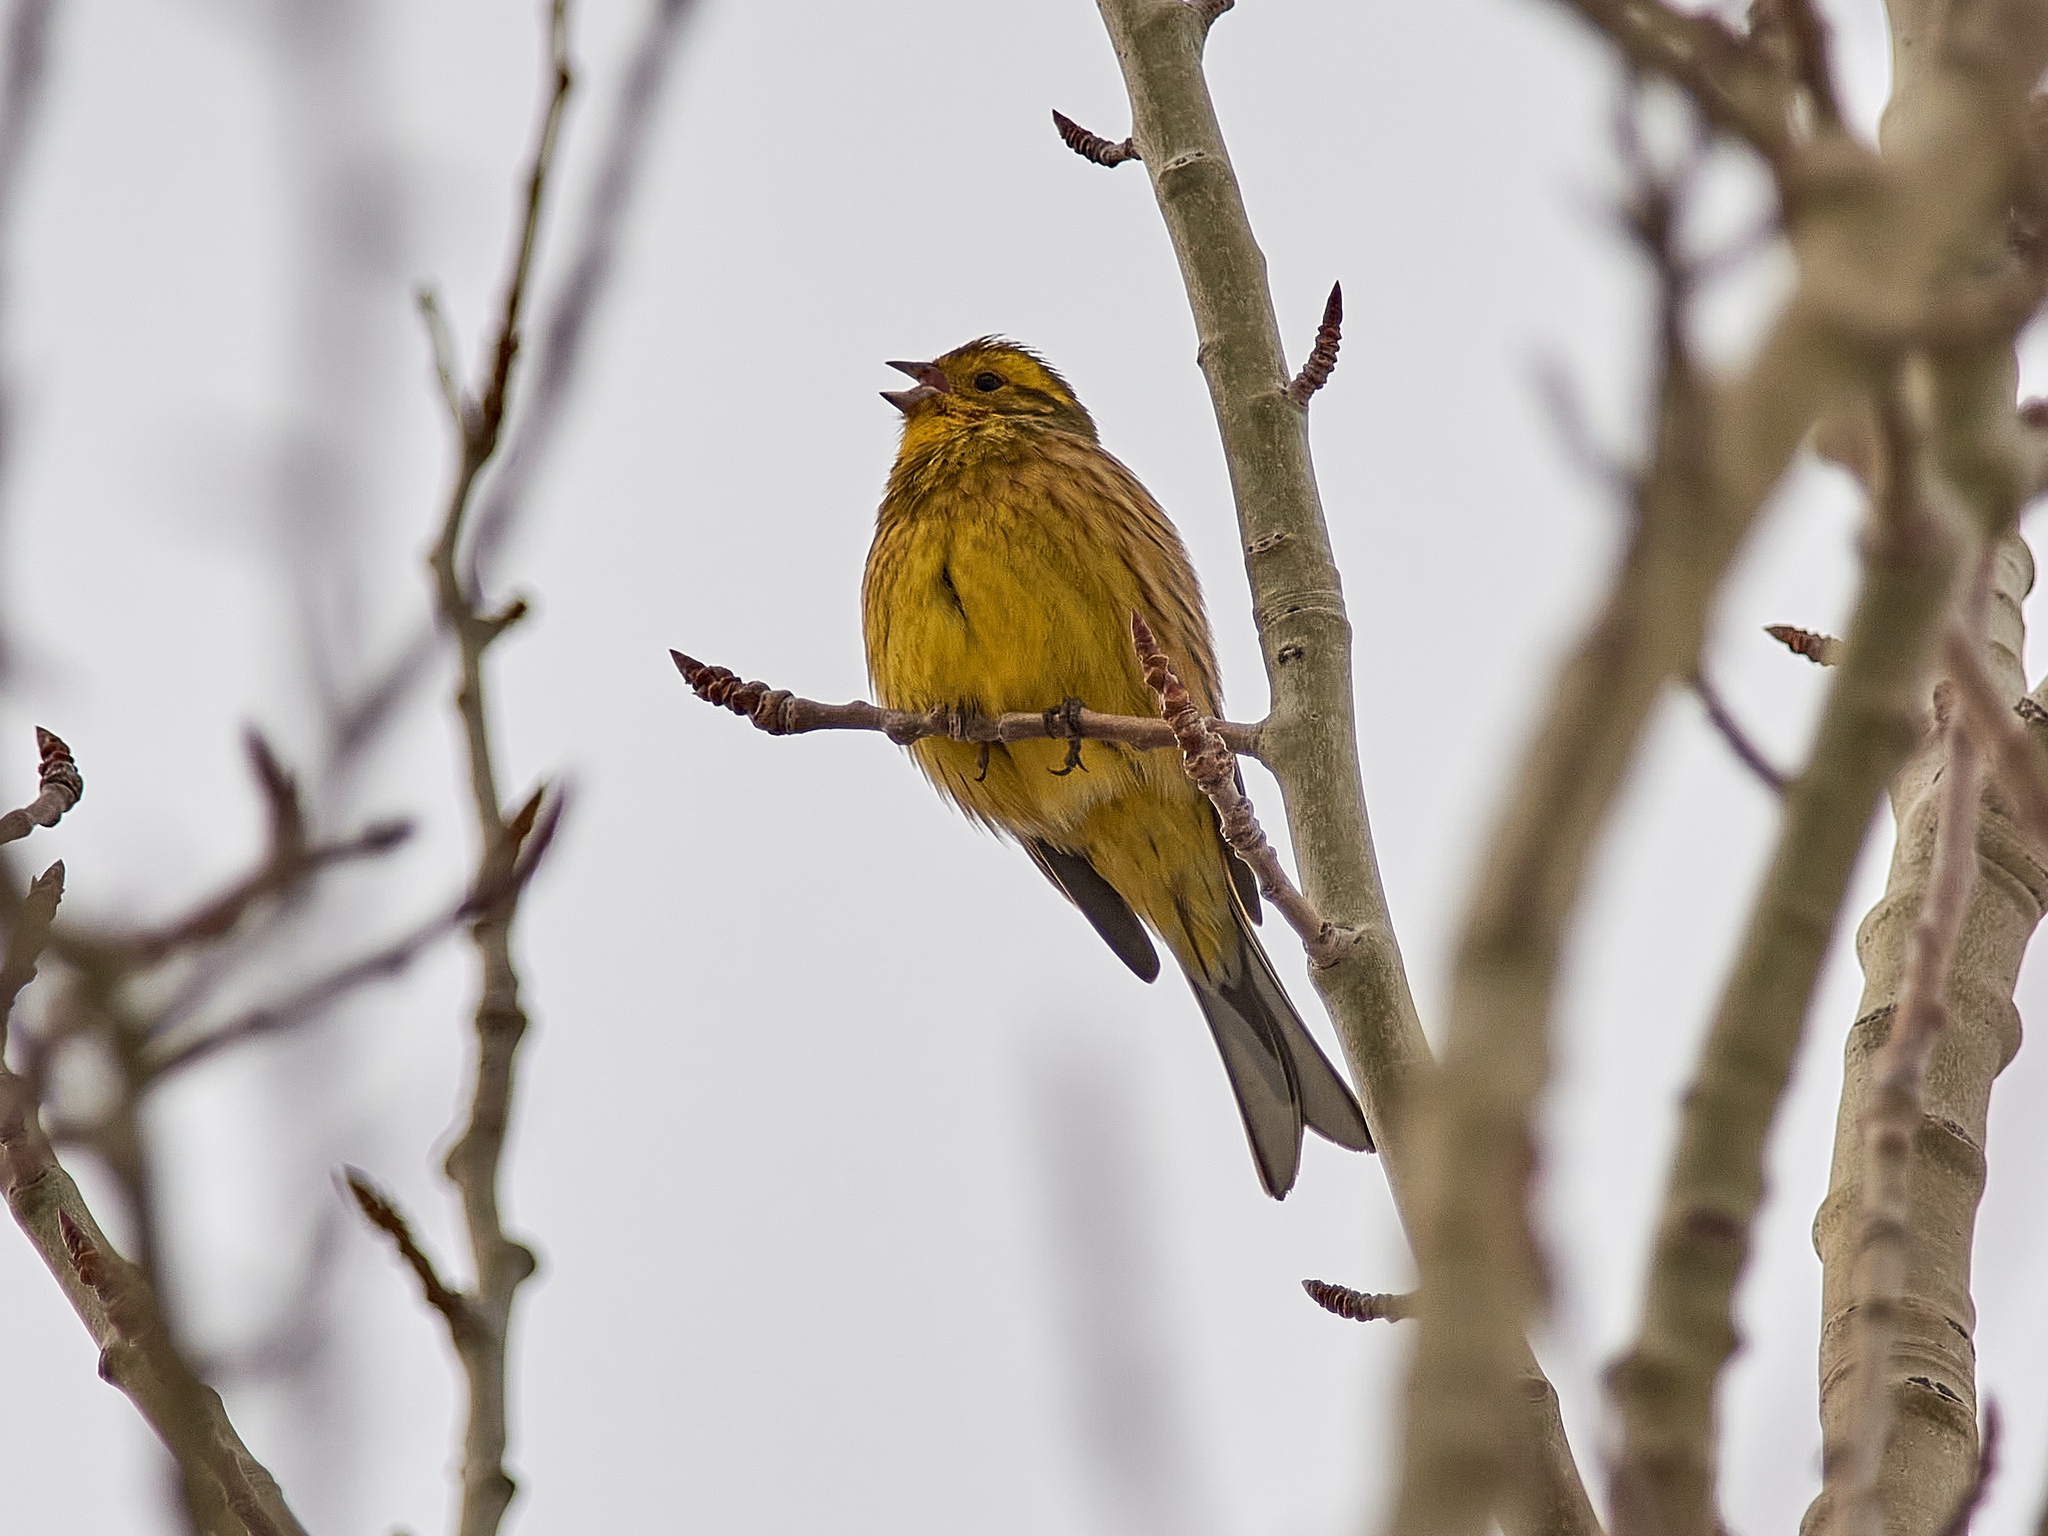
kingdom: Animalia
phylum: Chordata
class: Aves
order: Passeriformes
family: Emberizidae
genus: Emberiza
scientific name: Emberiza citrinella
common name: Yellowhammer
